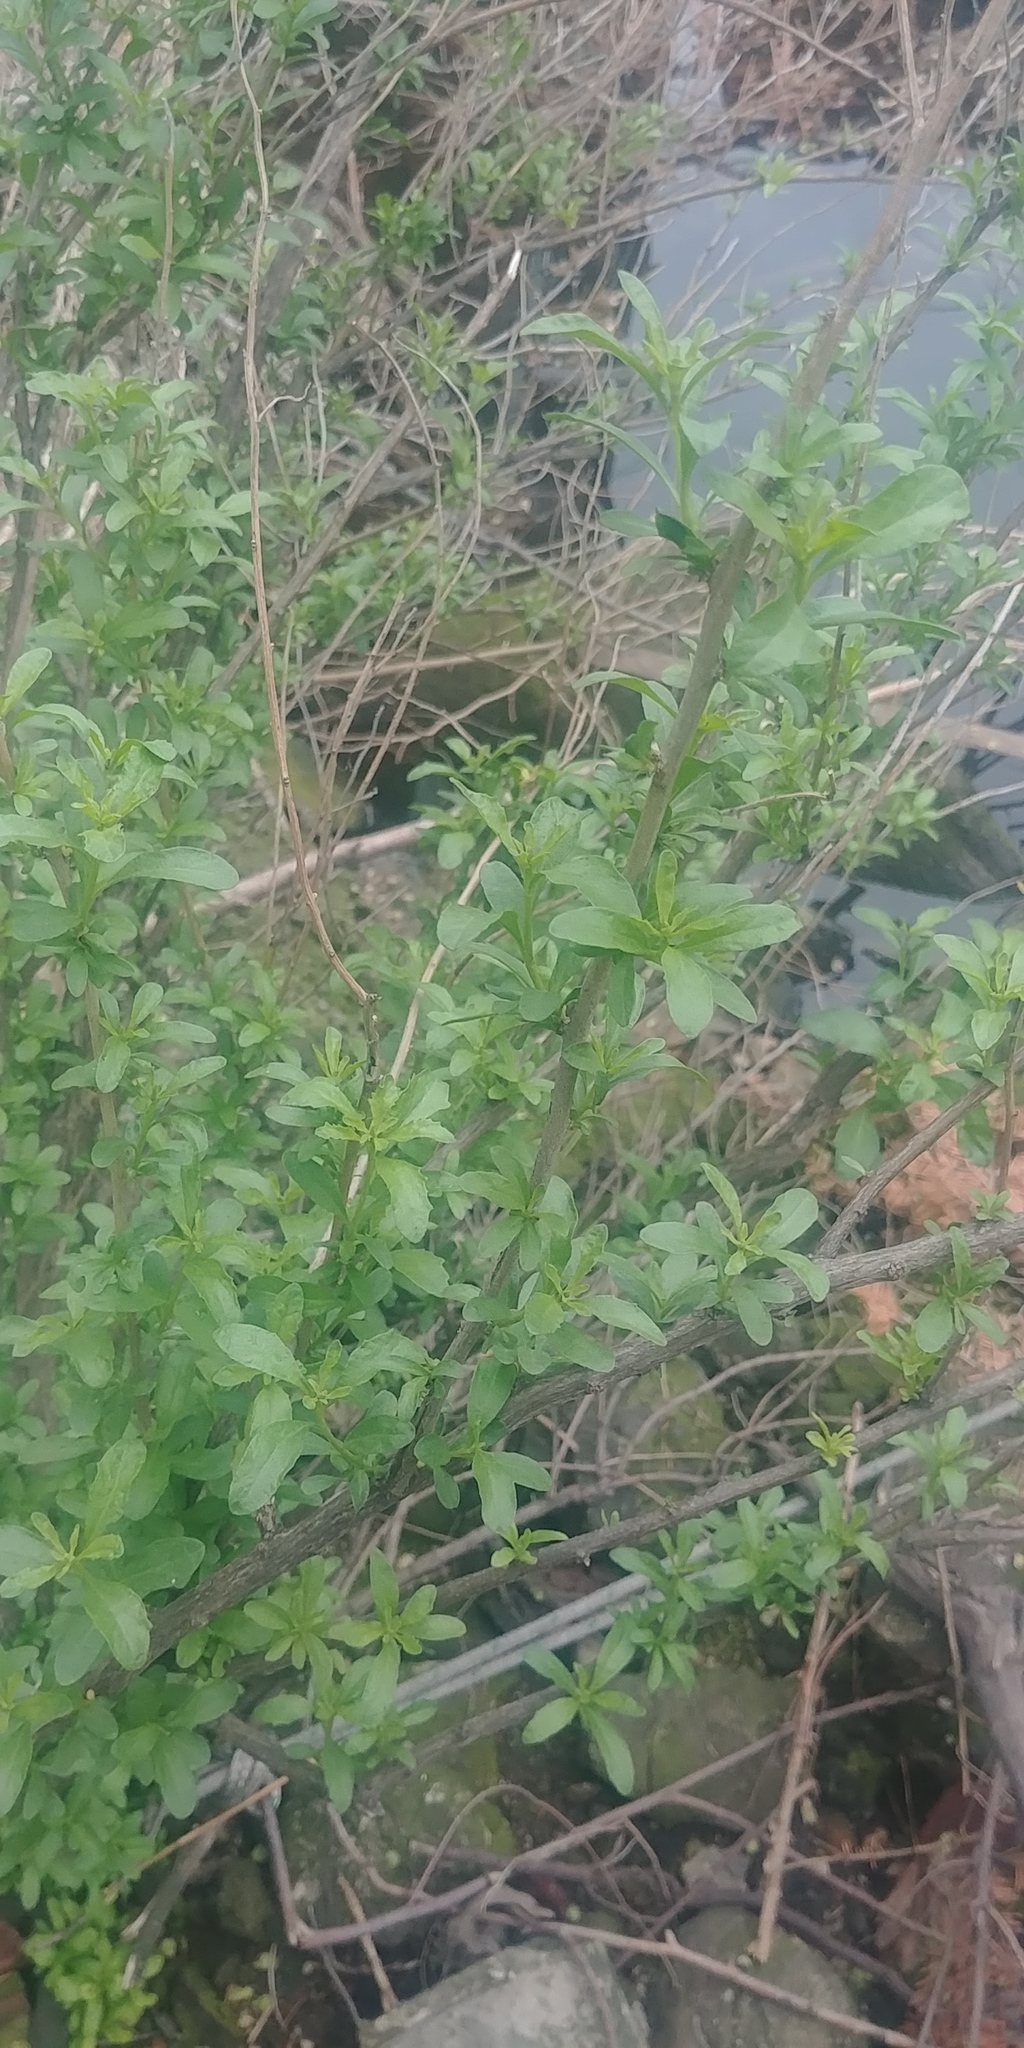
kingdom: Plantae
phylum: Tracheophyta
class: Magnoliopsida
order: Asterales
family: Asteraceae
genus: Iva
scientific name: Iva frutescens
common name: Big-leaved marsh-elder
